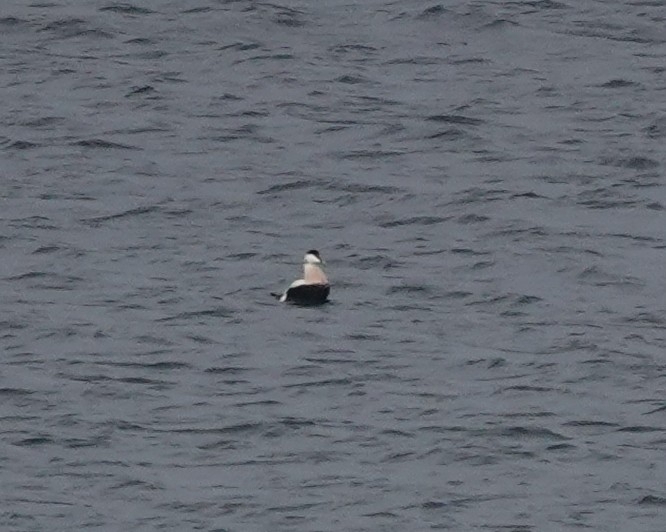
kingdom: Animalia
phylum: Chordata
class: Aves
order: Anseriformes
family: Anatidae
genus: Somateria
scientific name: Somateria mollissima
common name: Common eider
